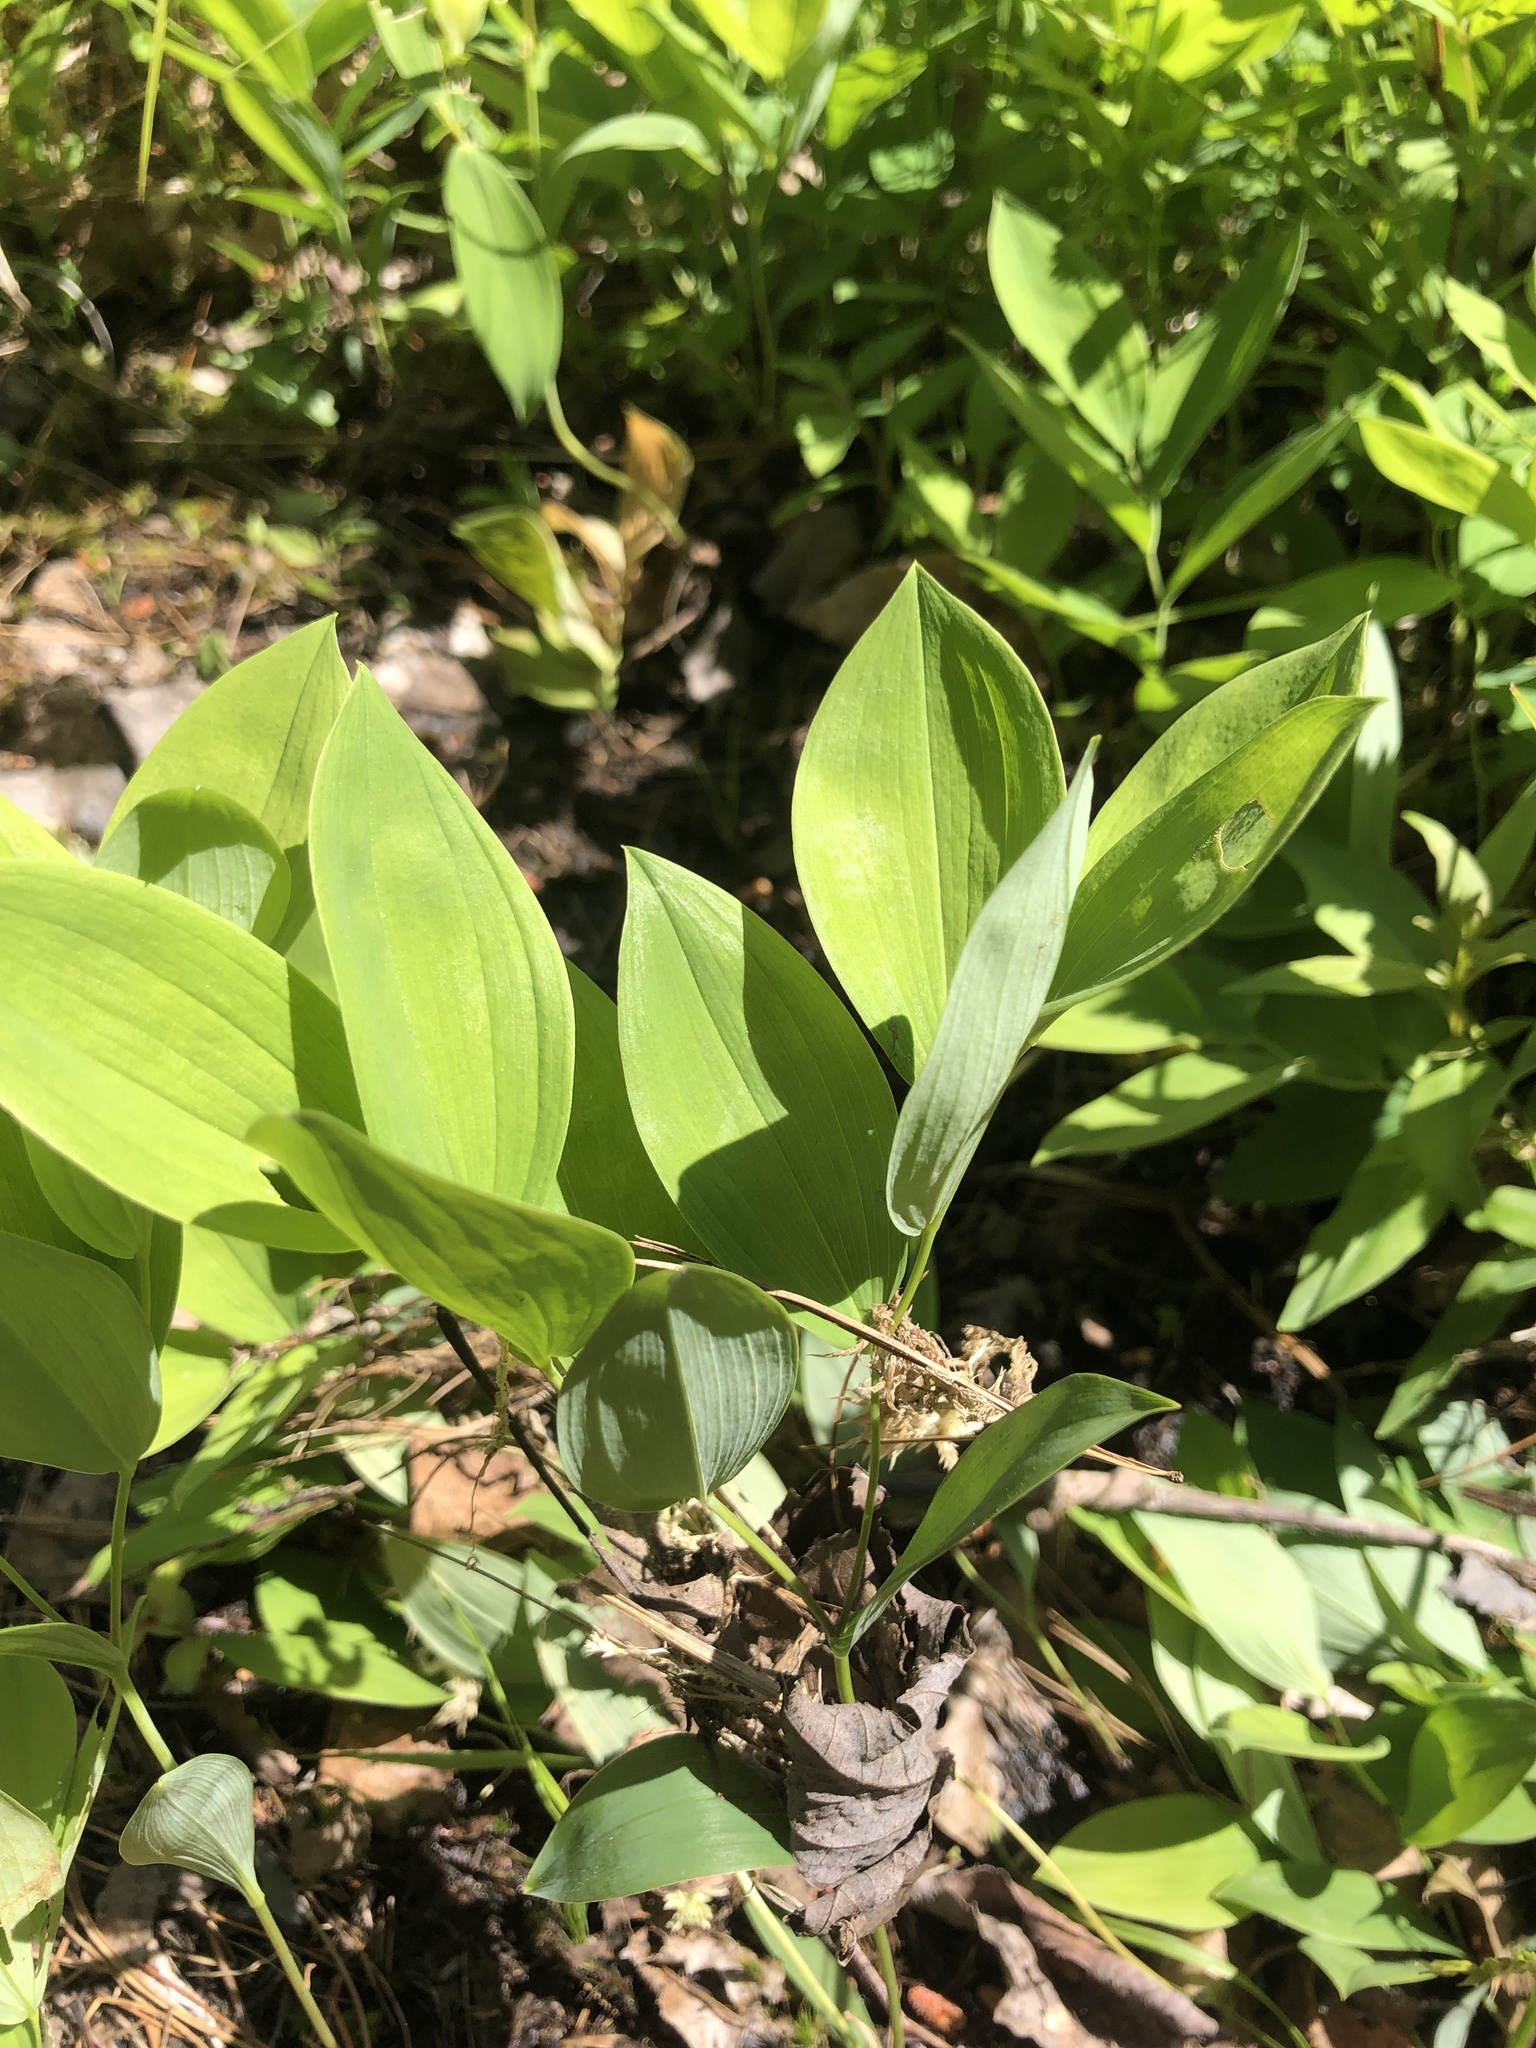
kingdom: Plantae
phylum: Tracheophyta
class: Liliopsida
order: Liliales
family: Colchicaceae
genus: Uvularia
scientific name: Uvularia sessilifolia
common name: Straw-lily
